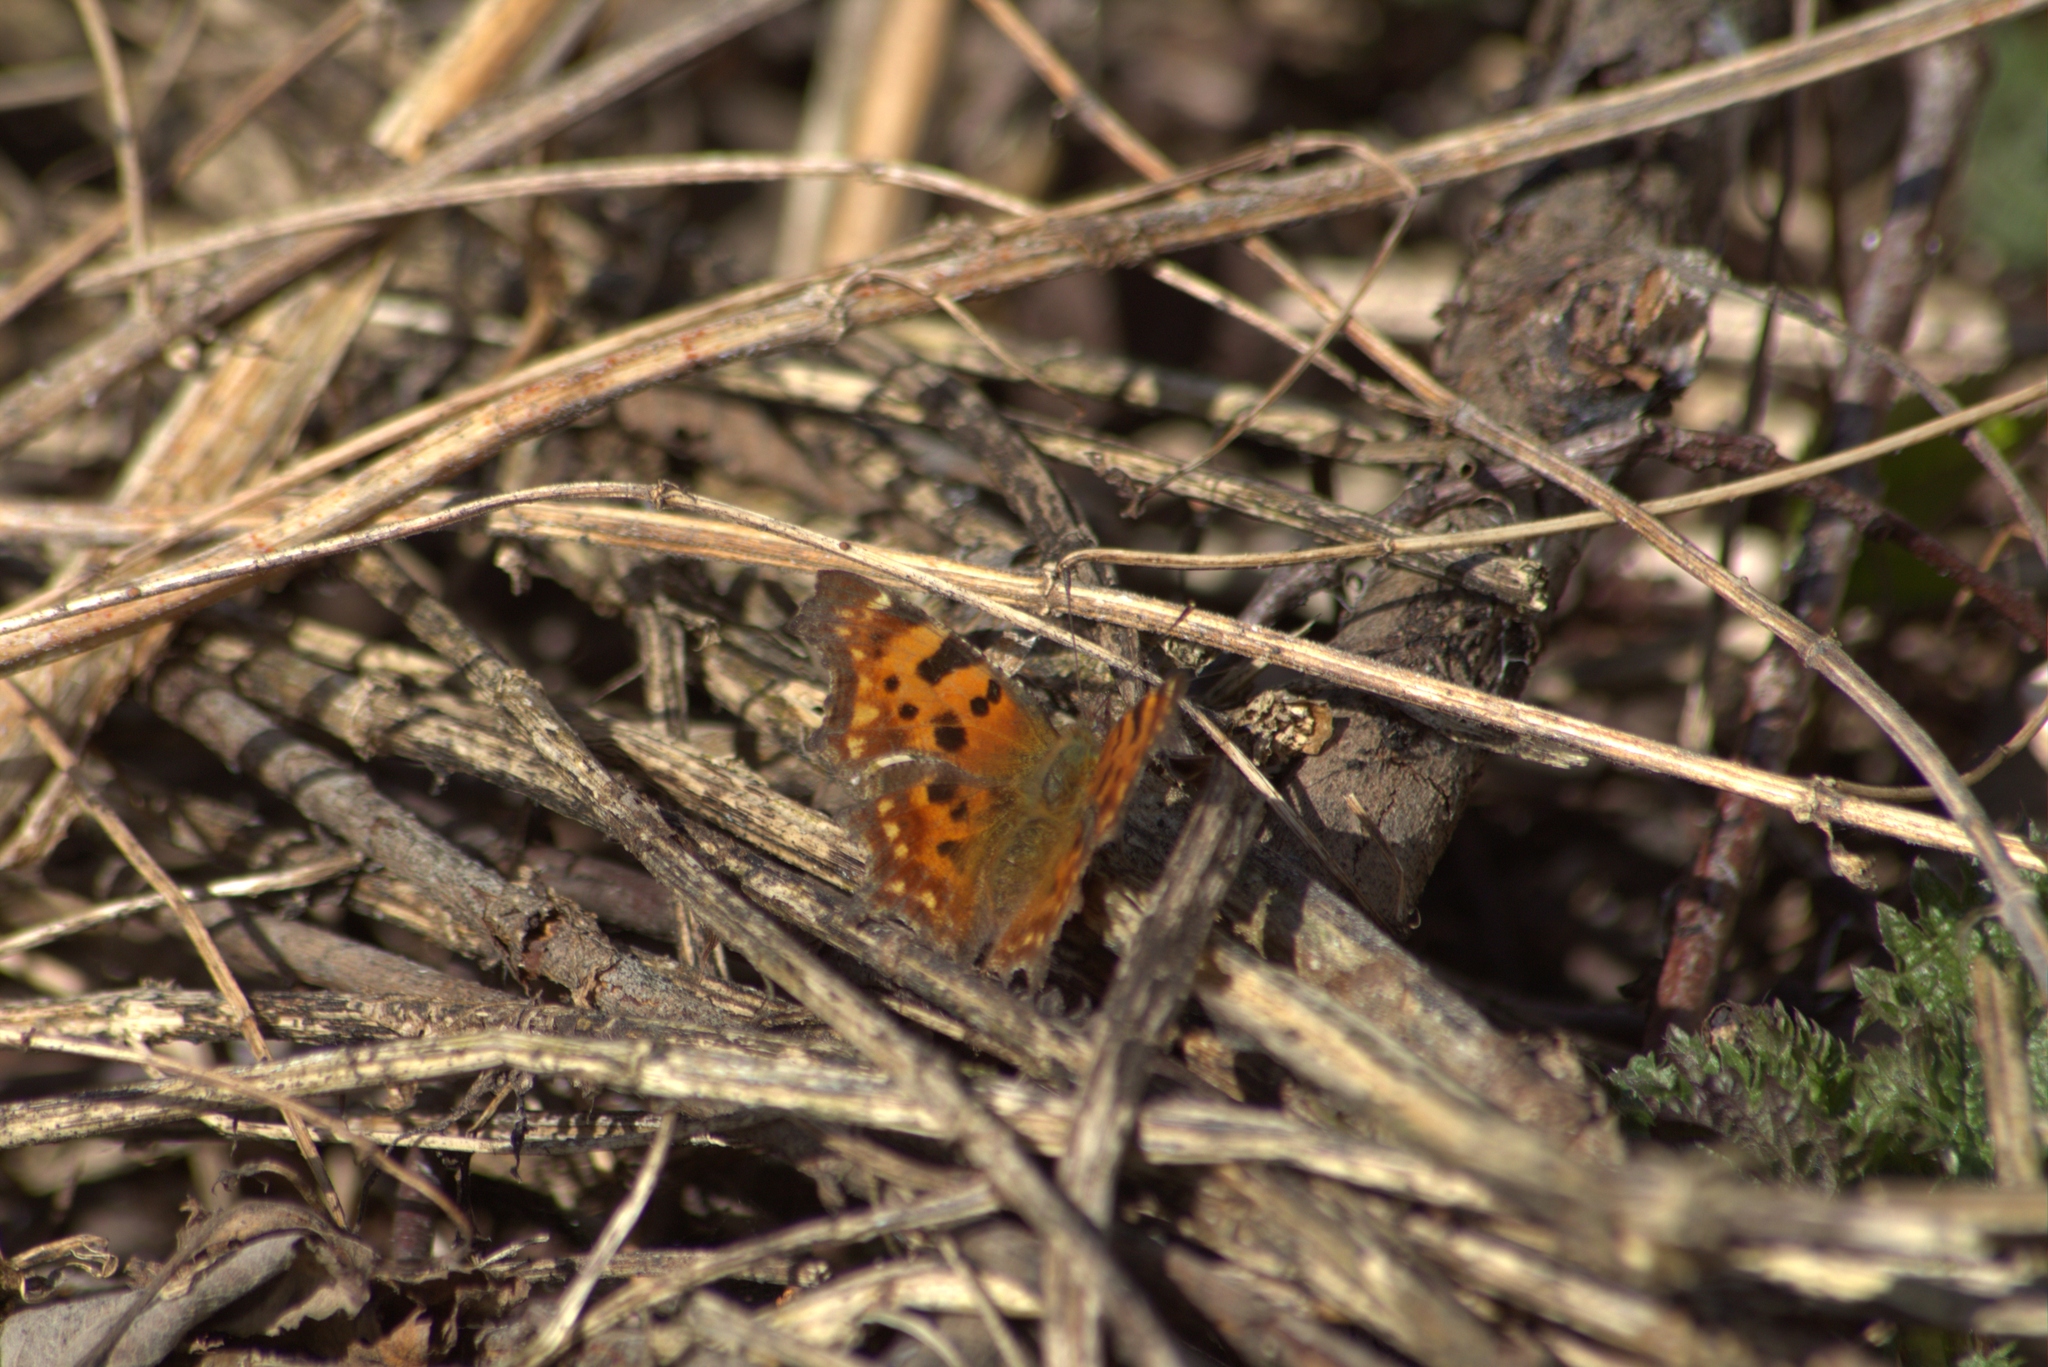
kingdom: Animalia
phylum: Arthropoda
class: Insecta
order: Lepidoptera
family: Nymphalidae
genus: Polygonia
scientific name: Polygonia c-album
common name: Comma
